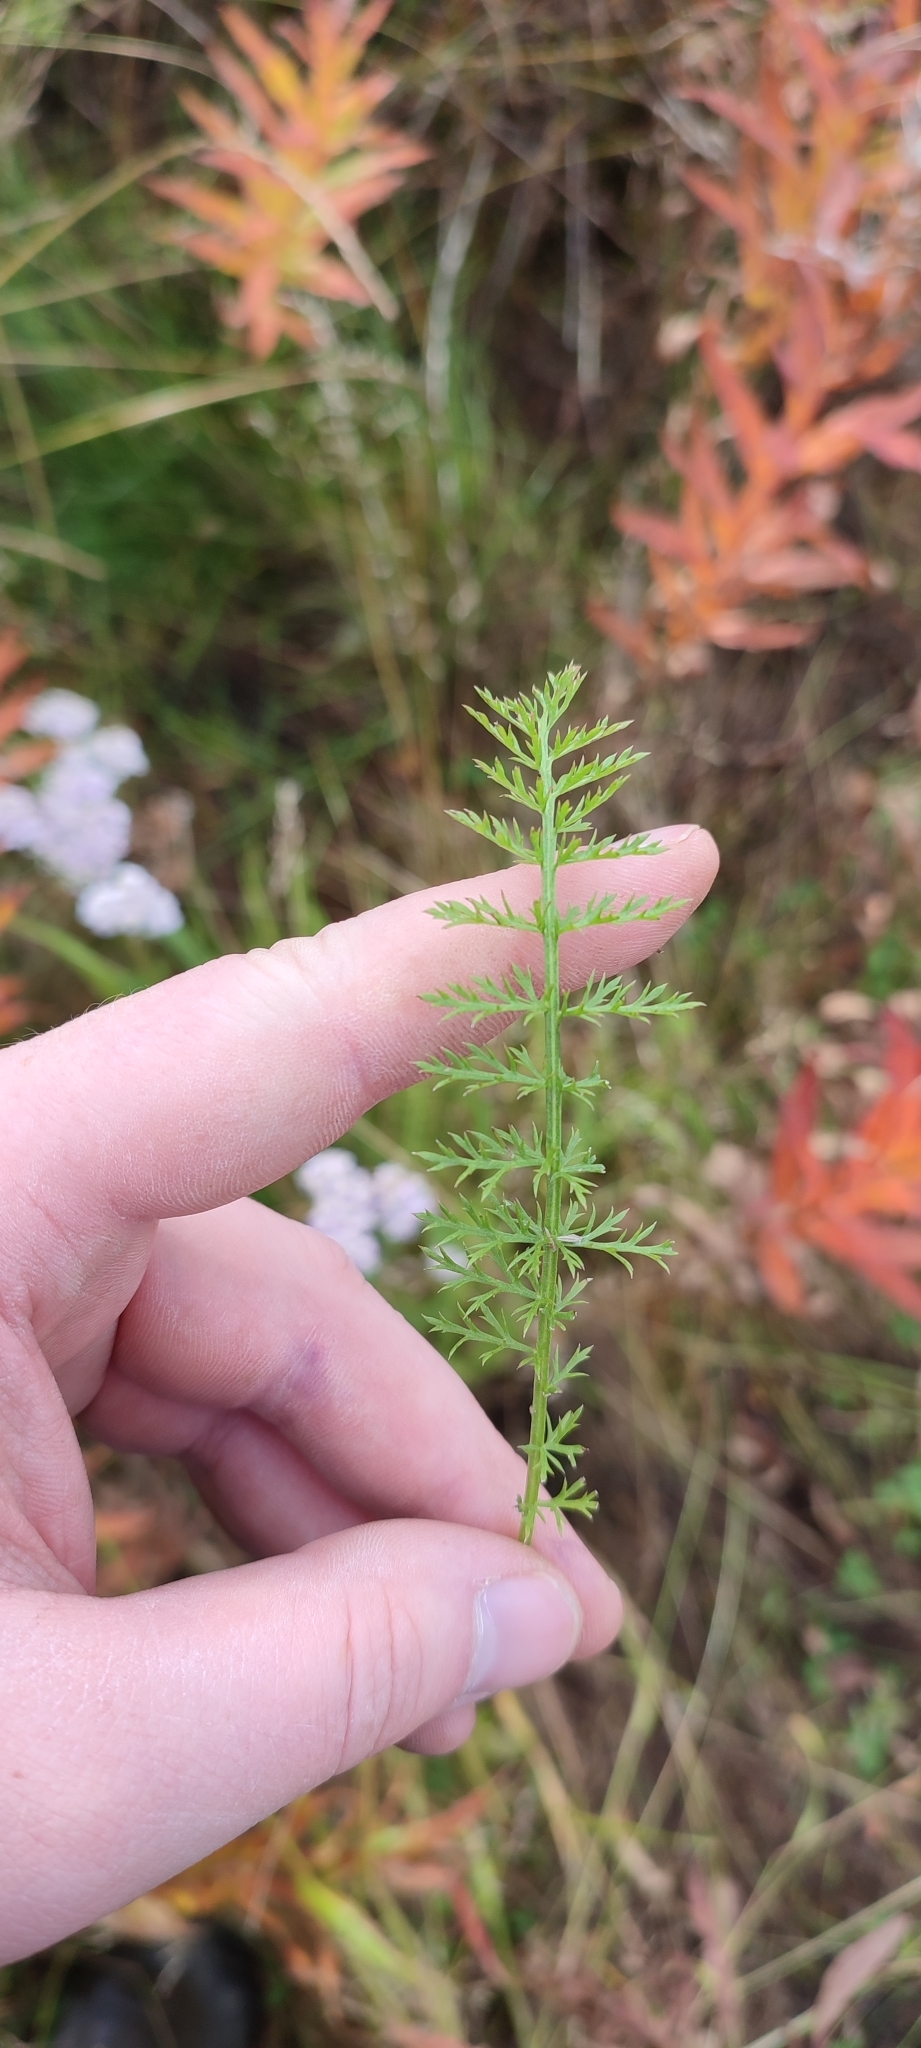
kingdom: Plantae
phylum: Tracheophyta
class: Magnoliopsida
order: Asterales
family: Asteraceae
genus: Achillea
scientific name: Achillea asiatica
